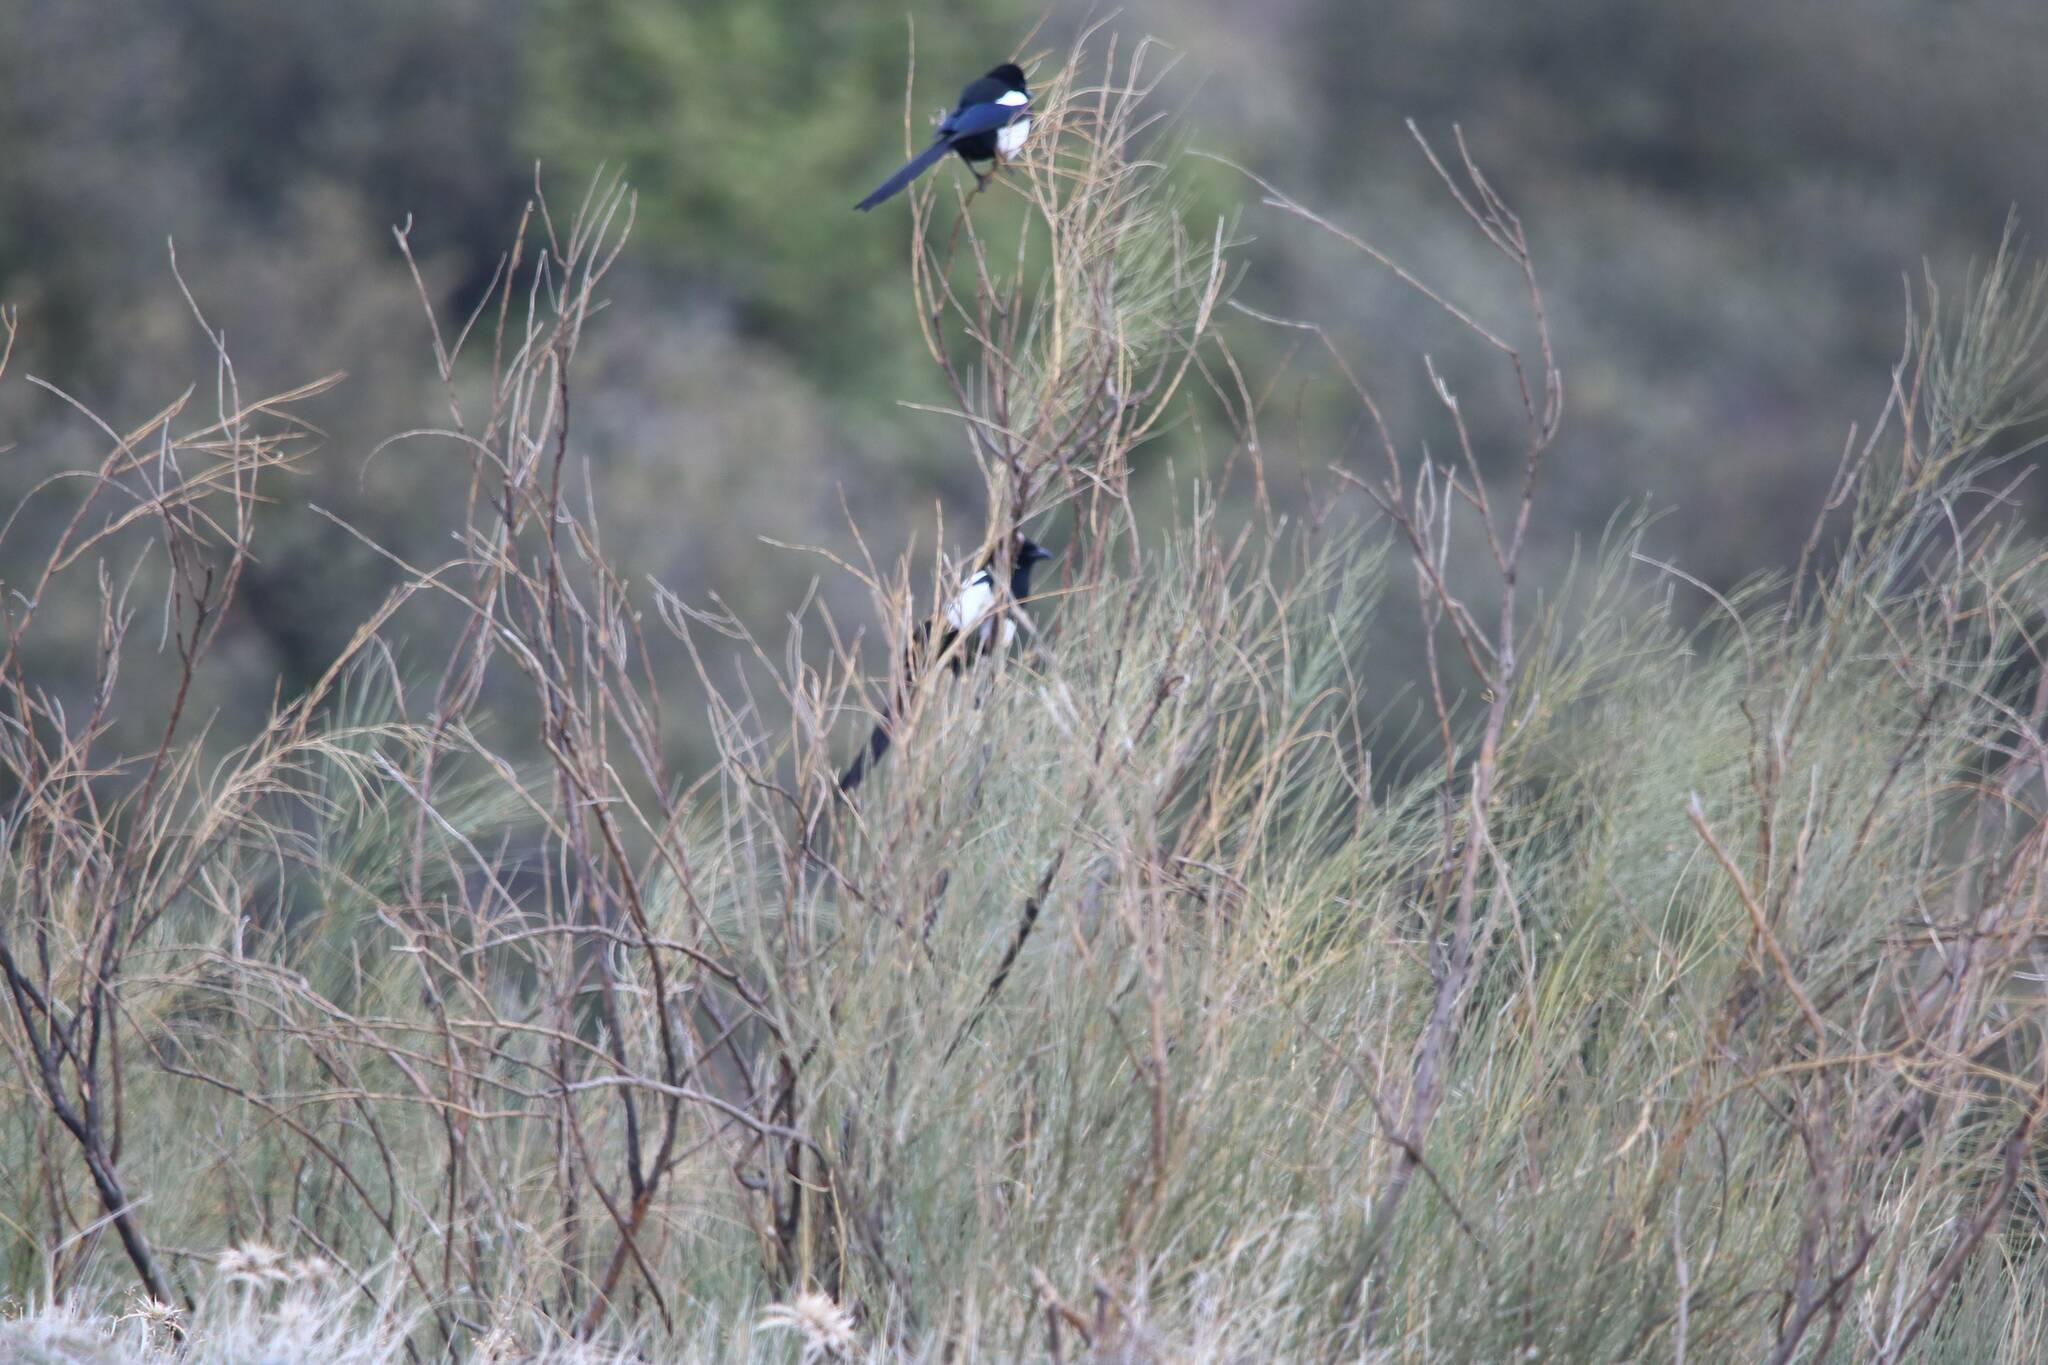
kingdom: Animalia
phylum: Chordata
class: Aves
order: Passeriformes
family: Corvidae
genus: Pica
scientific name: Pica mauritanica
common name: Maghreb magpie
